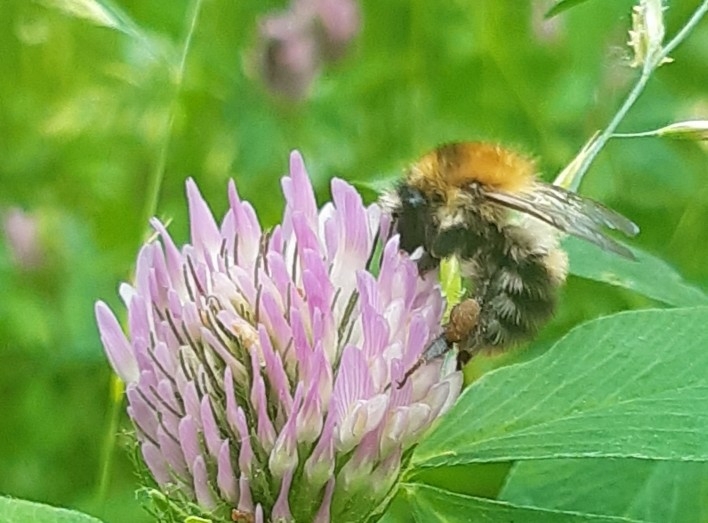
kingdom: Animalia
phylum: Arthropoda
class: Insecta
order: Hymenoptera
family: Apidae
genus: Bombus
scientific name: Bombus pascuorum
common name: Common carder bee
